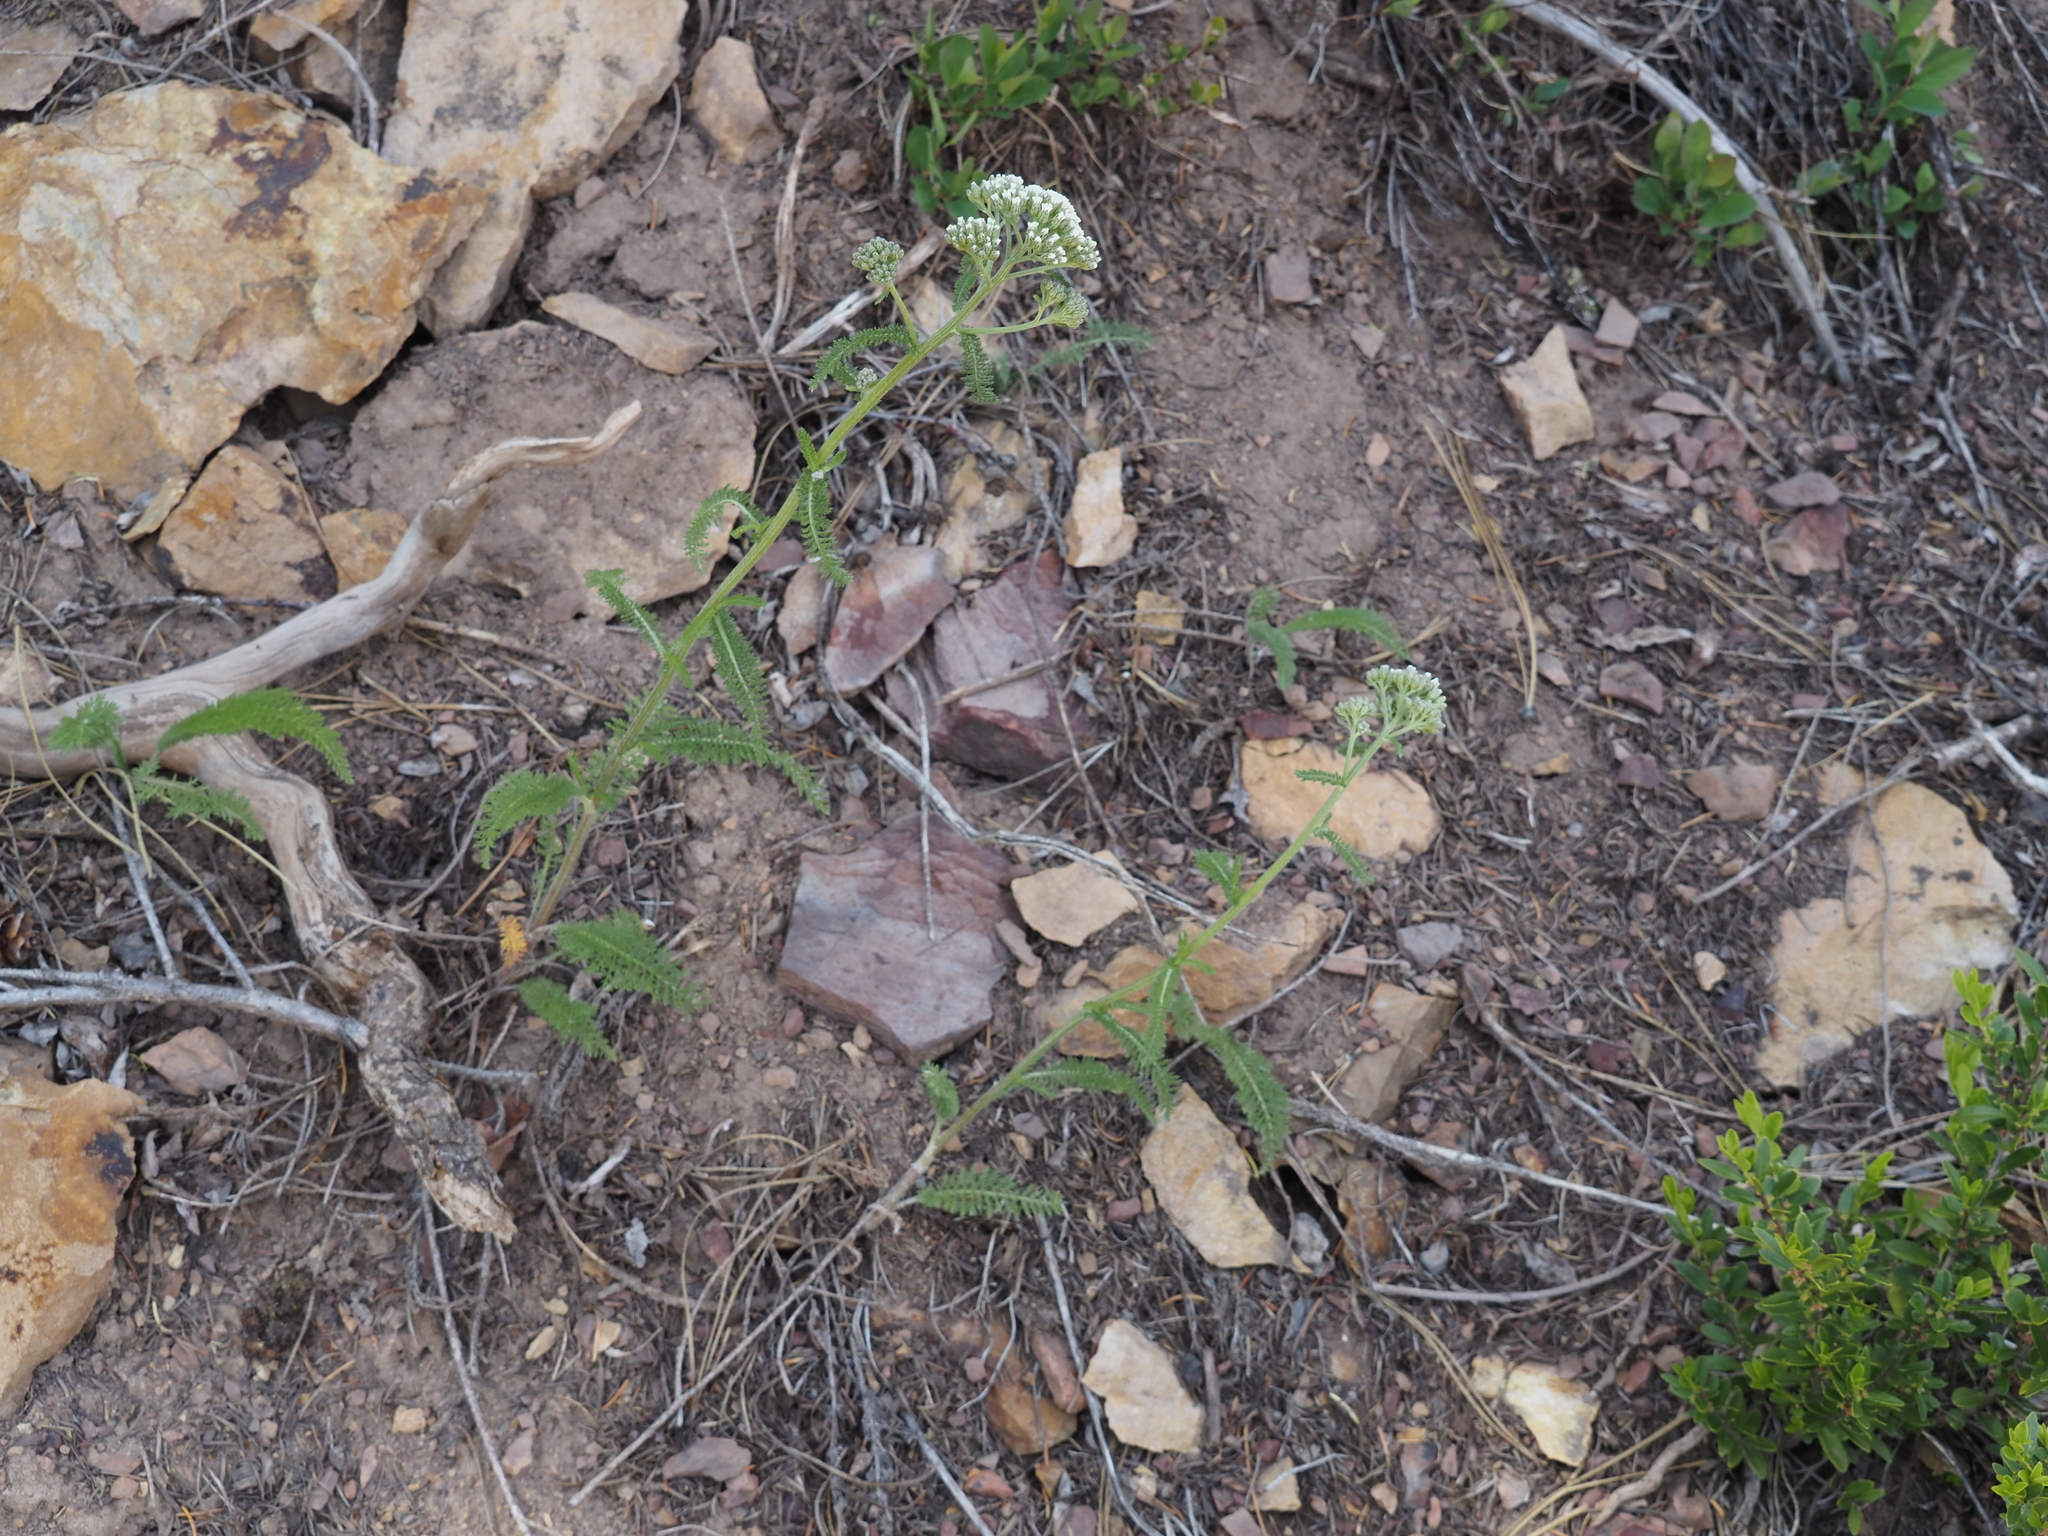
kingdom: Plantae
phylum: Tracheophyta
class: Magnoliopsida
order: Asterales
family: Asteraceae
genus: Achillea
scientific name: Achillea millefolium
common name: Yarrow
